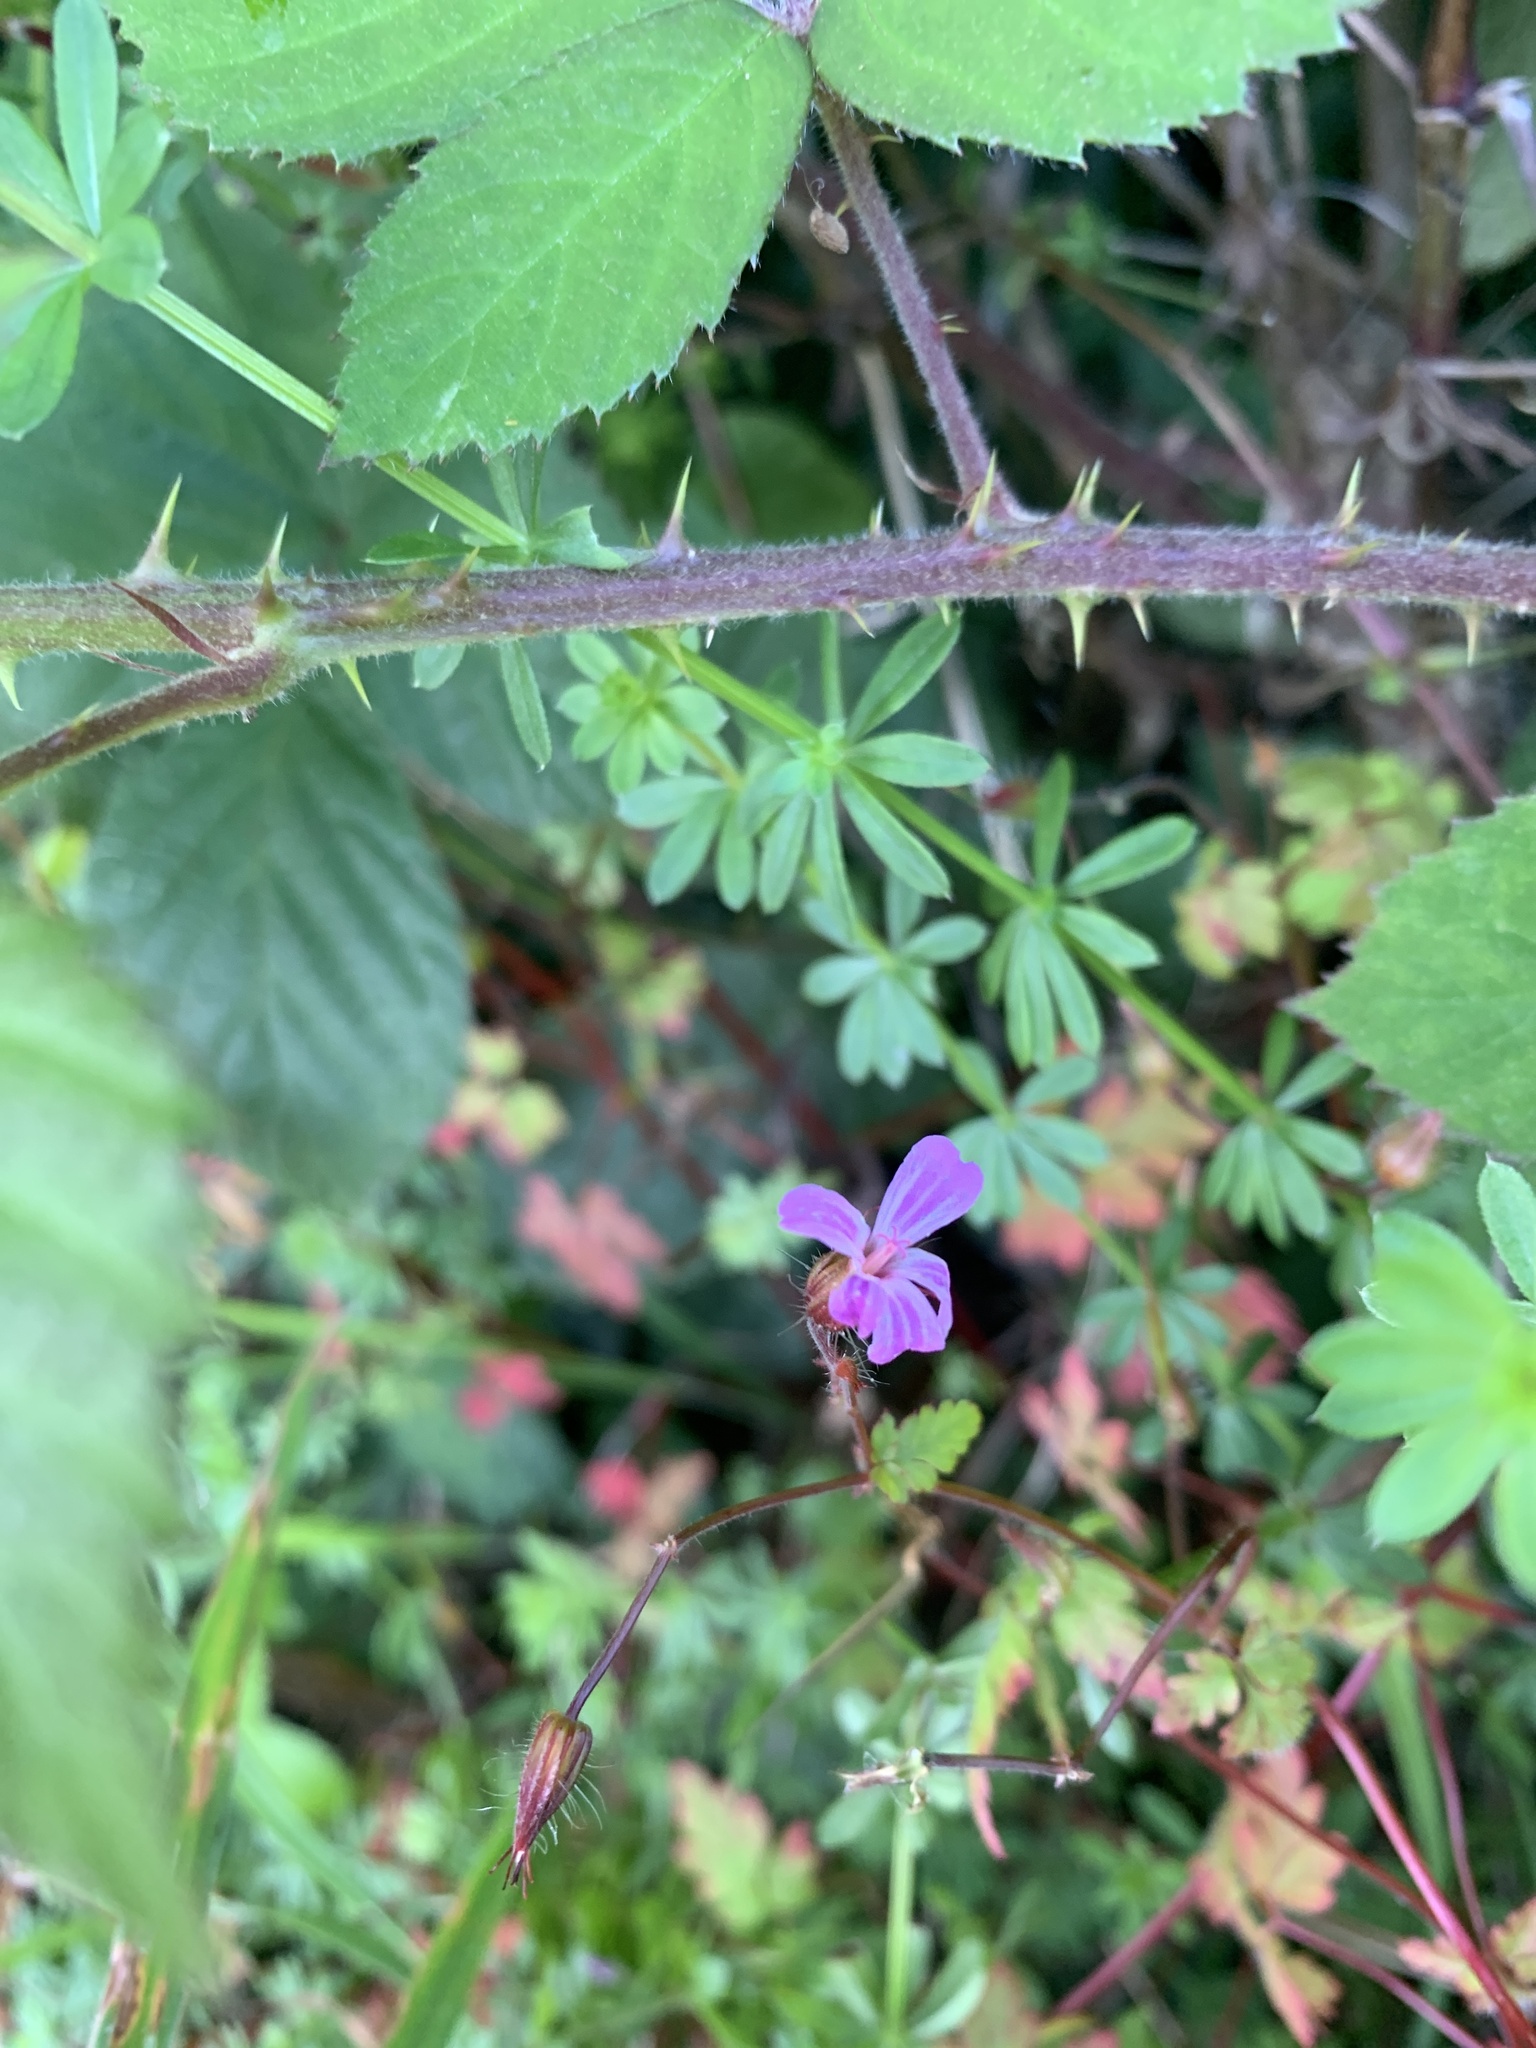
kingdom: Plantae
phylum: Tracheophyta
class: Magnoliopsida
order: Geraniales
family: Geraniaceae
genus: Geranium
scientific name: Geranium robertianum
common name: Herb-robert
